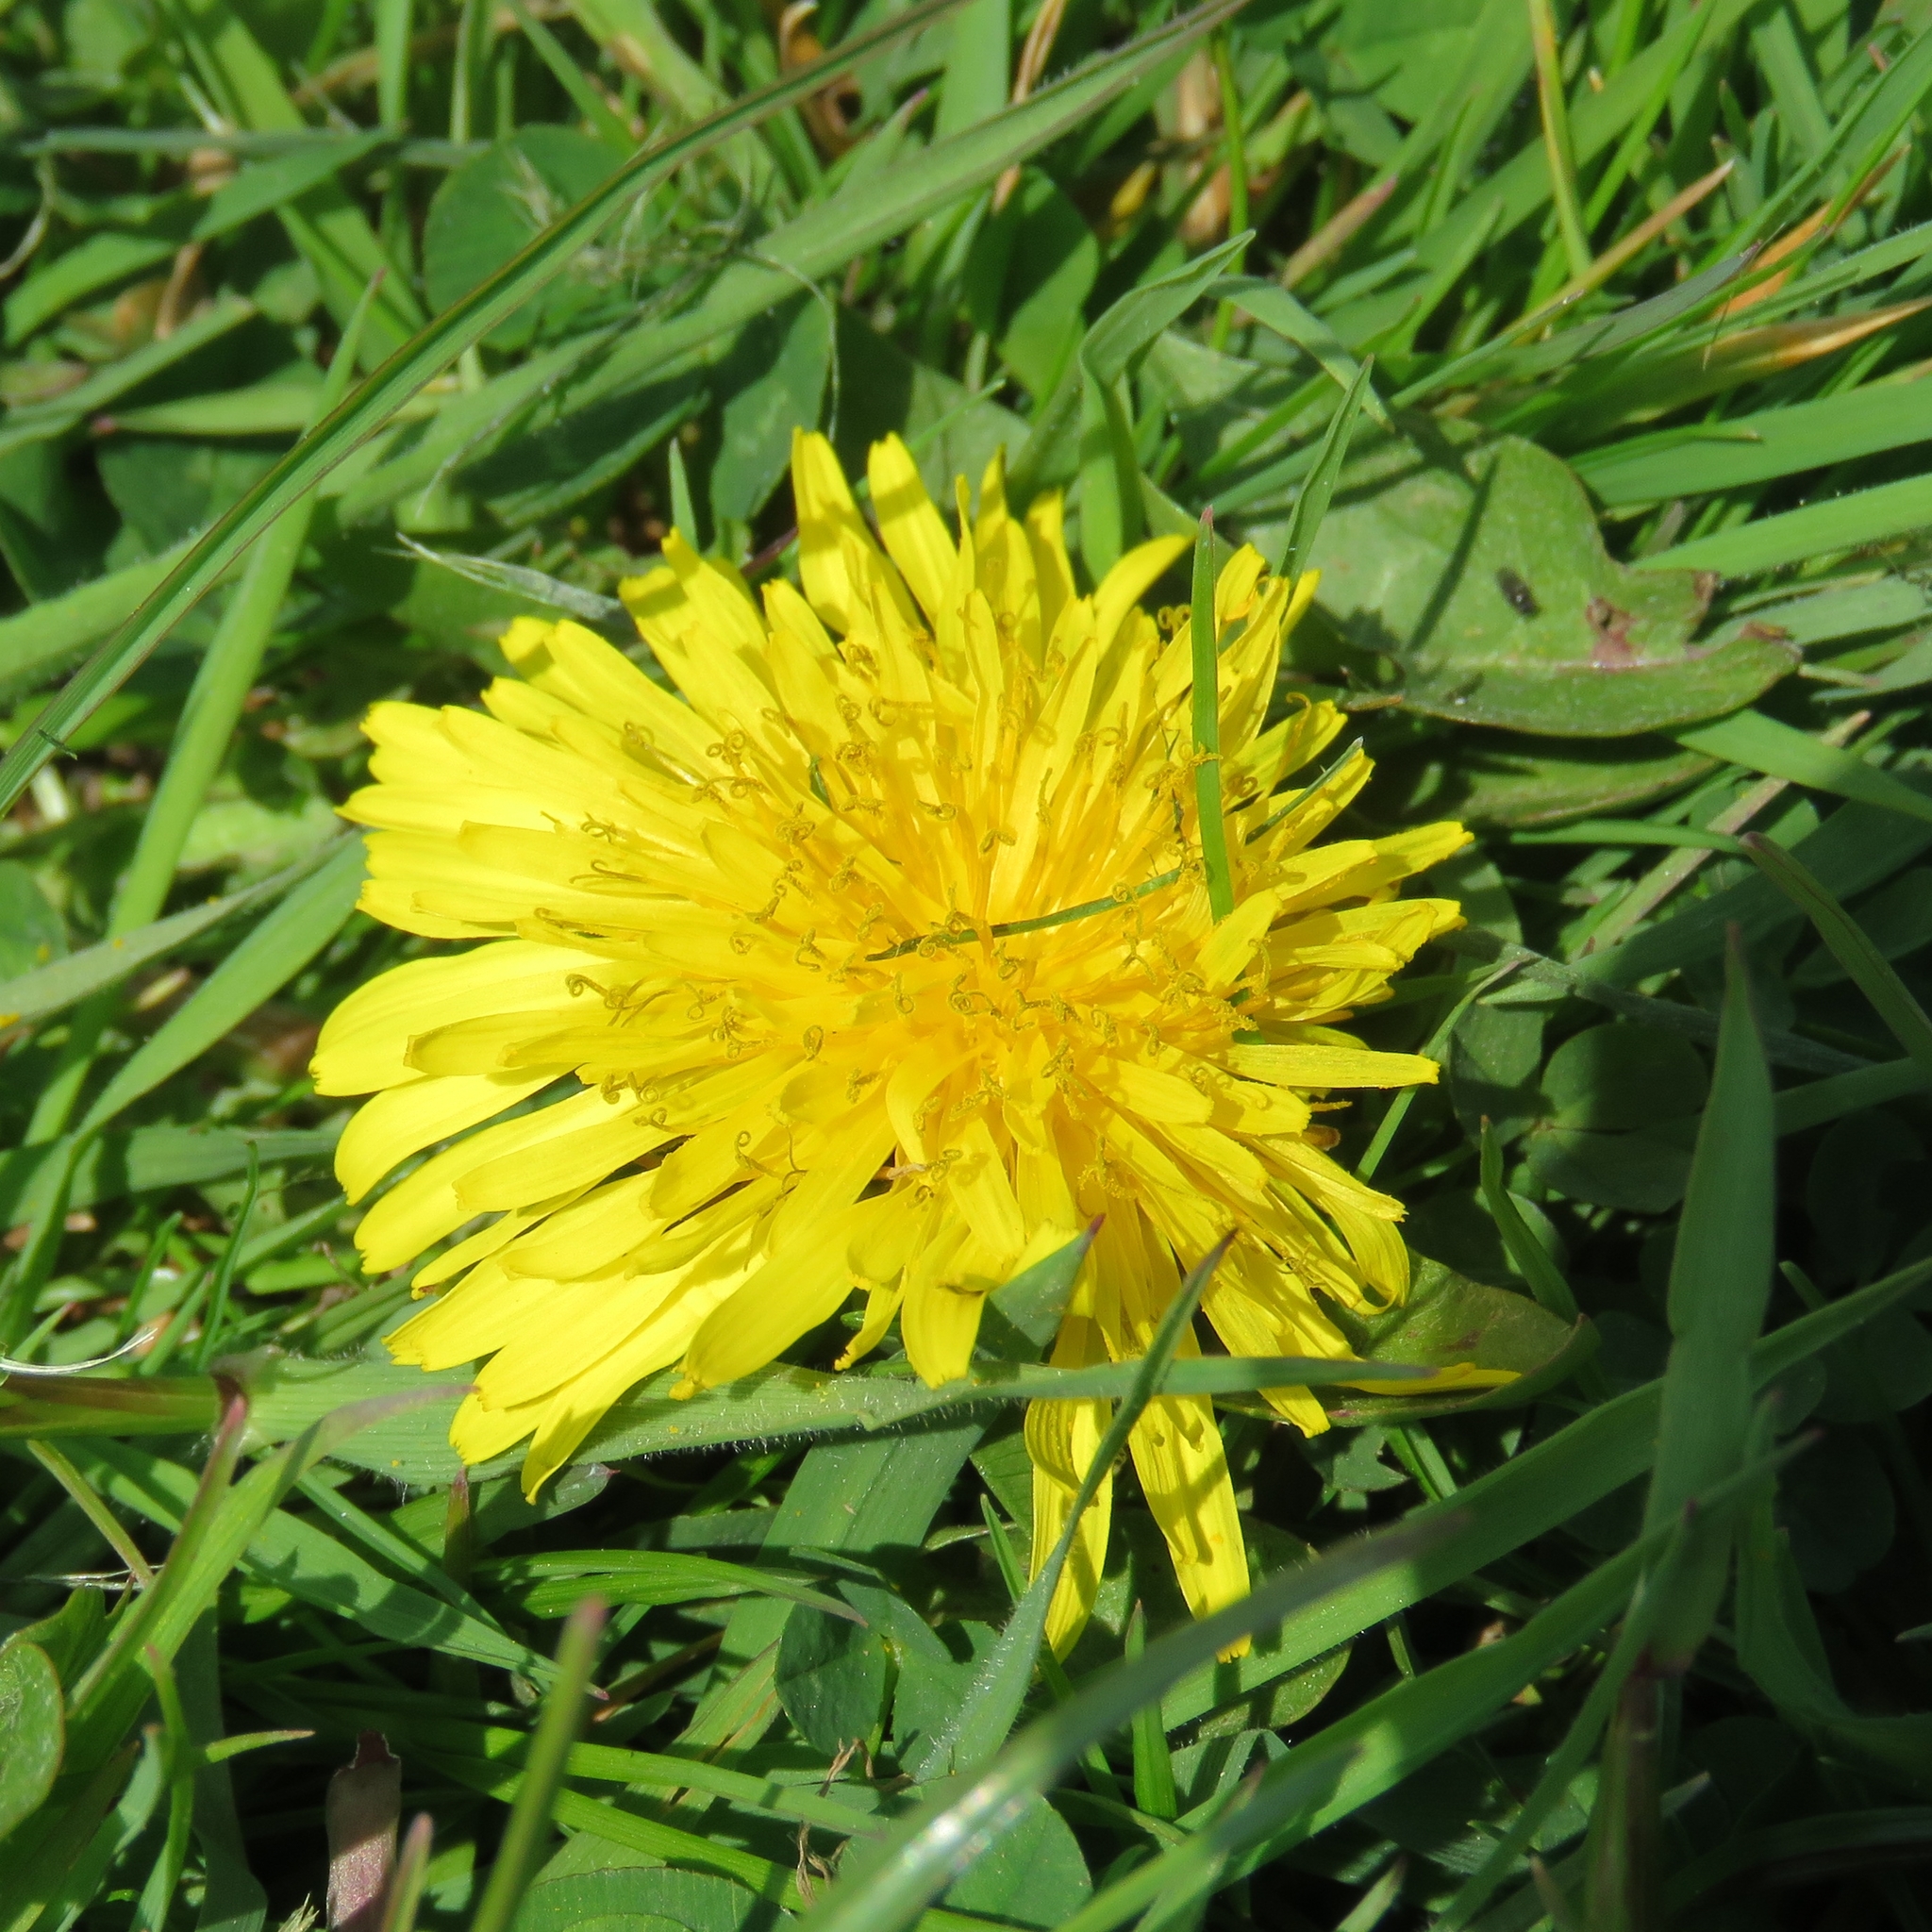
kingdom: Plantae
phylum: Tracheophyta
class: Magnoliopsida
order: Asterales
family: Asteraceae
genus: Taraxacum
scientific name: Taraxacum officinale
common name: Common dandelion
